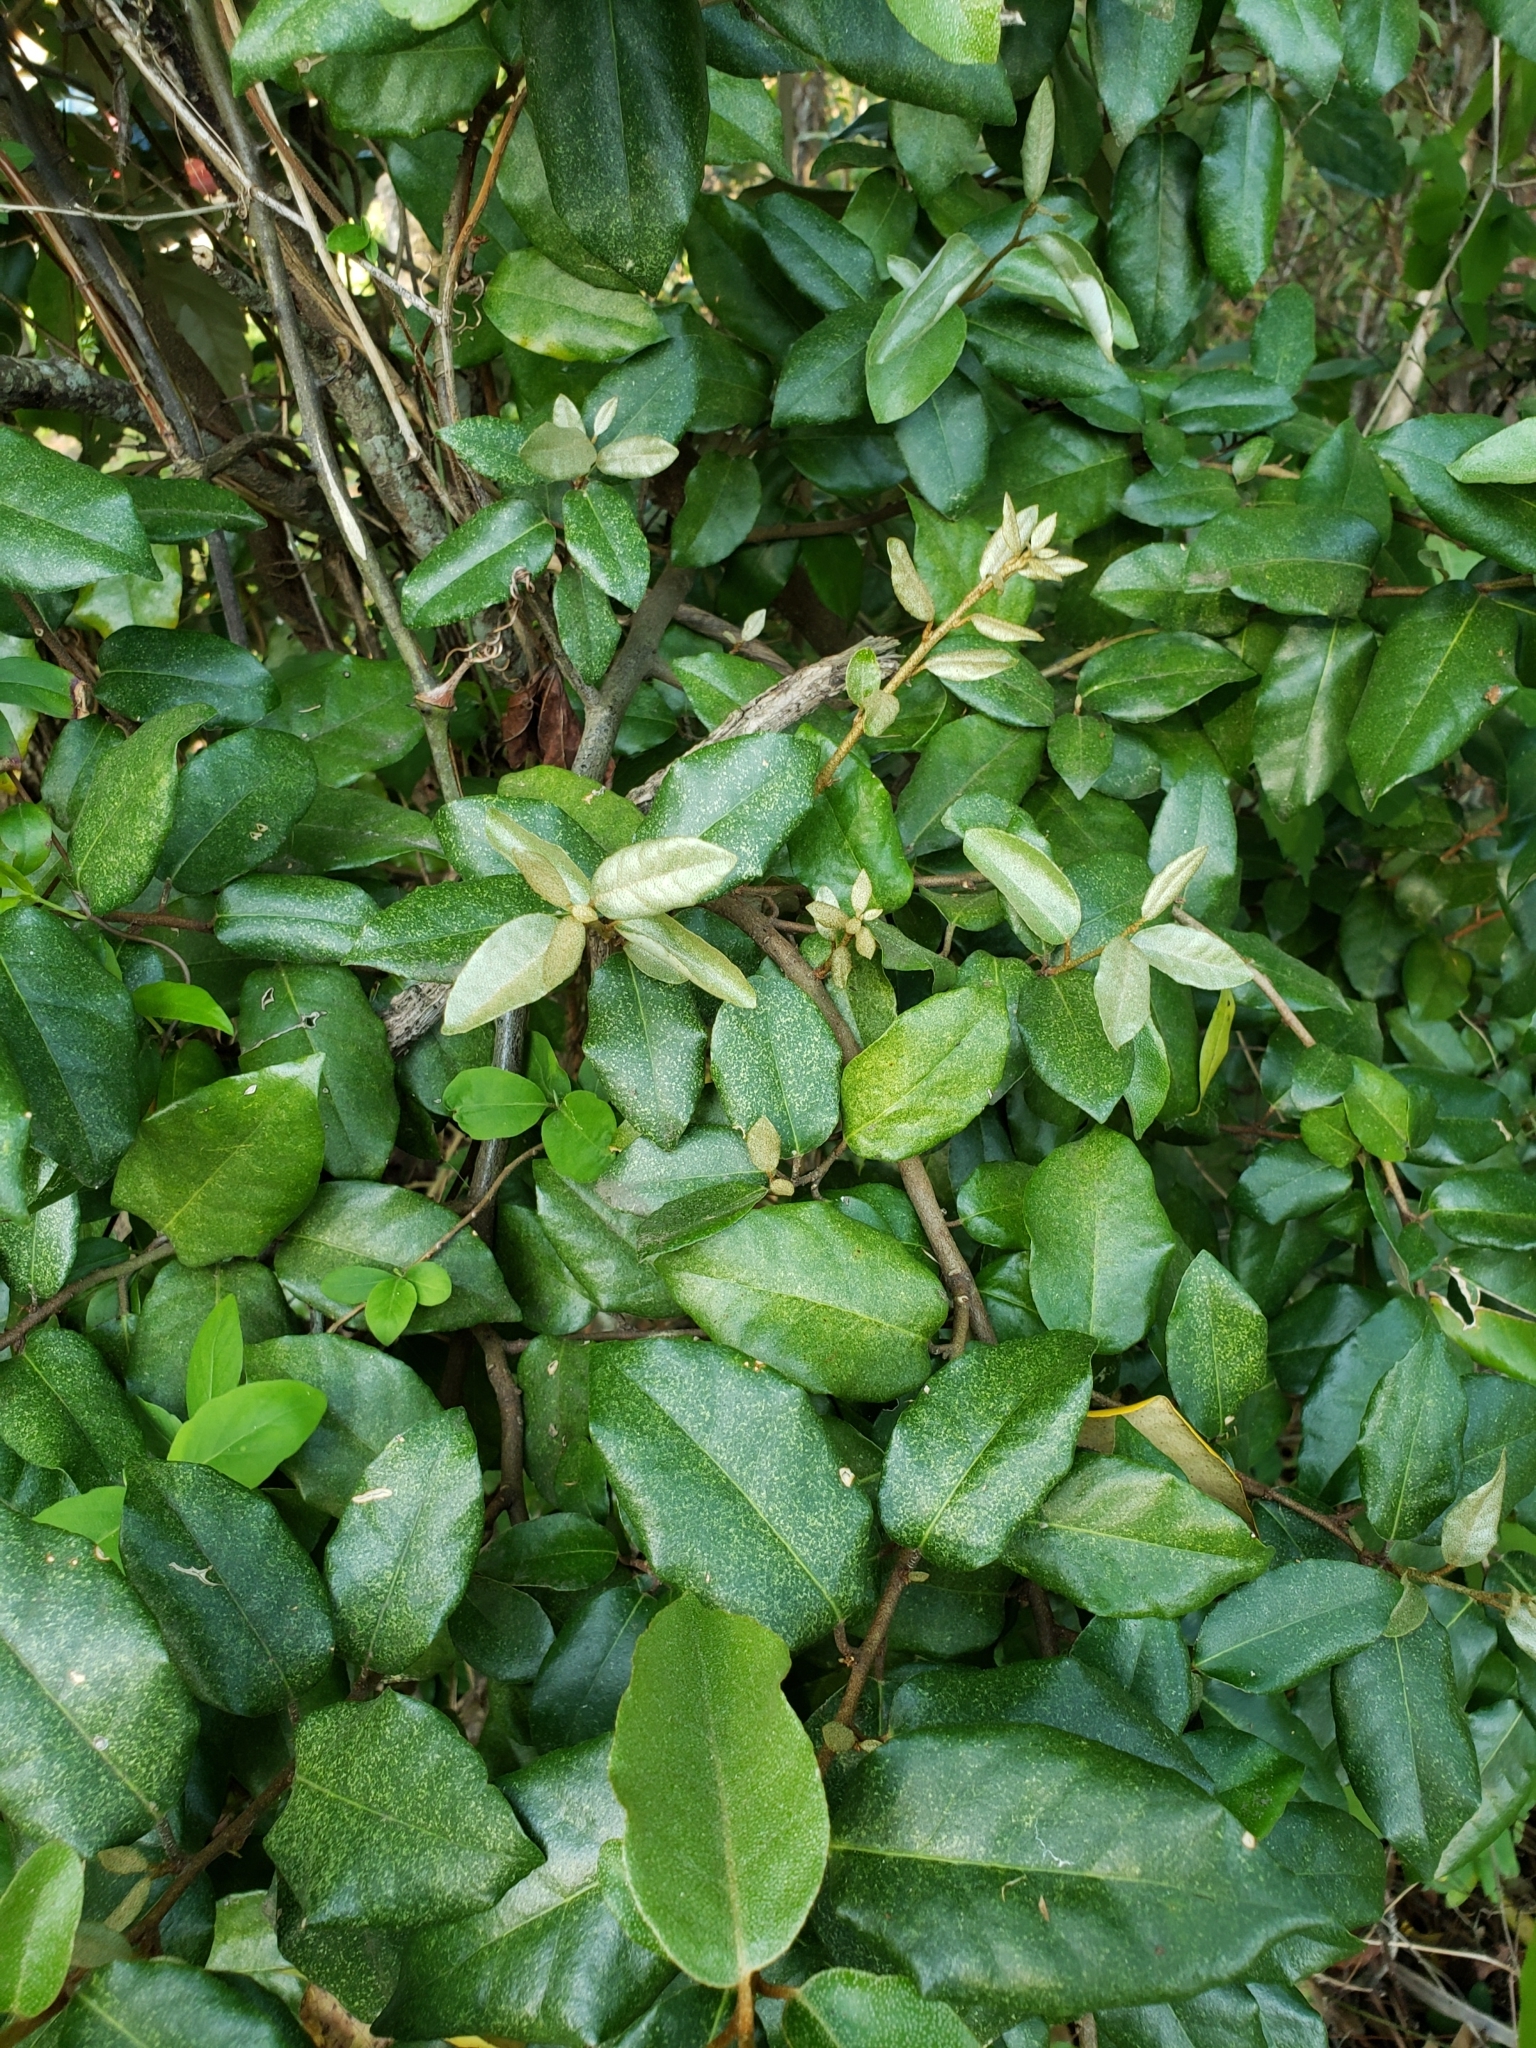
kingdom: Plantae
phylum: Tracheophyta
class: Magnoliopsida
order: Rosales
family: Elaeagnaceae
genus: Elaeagnus
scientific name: Elaeagnus pungens
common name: Spiny oleaster
